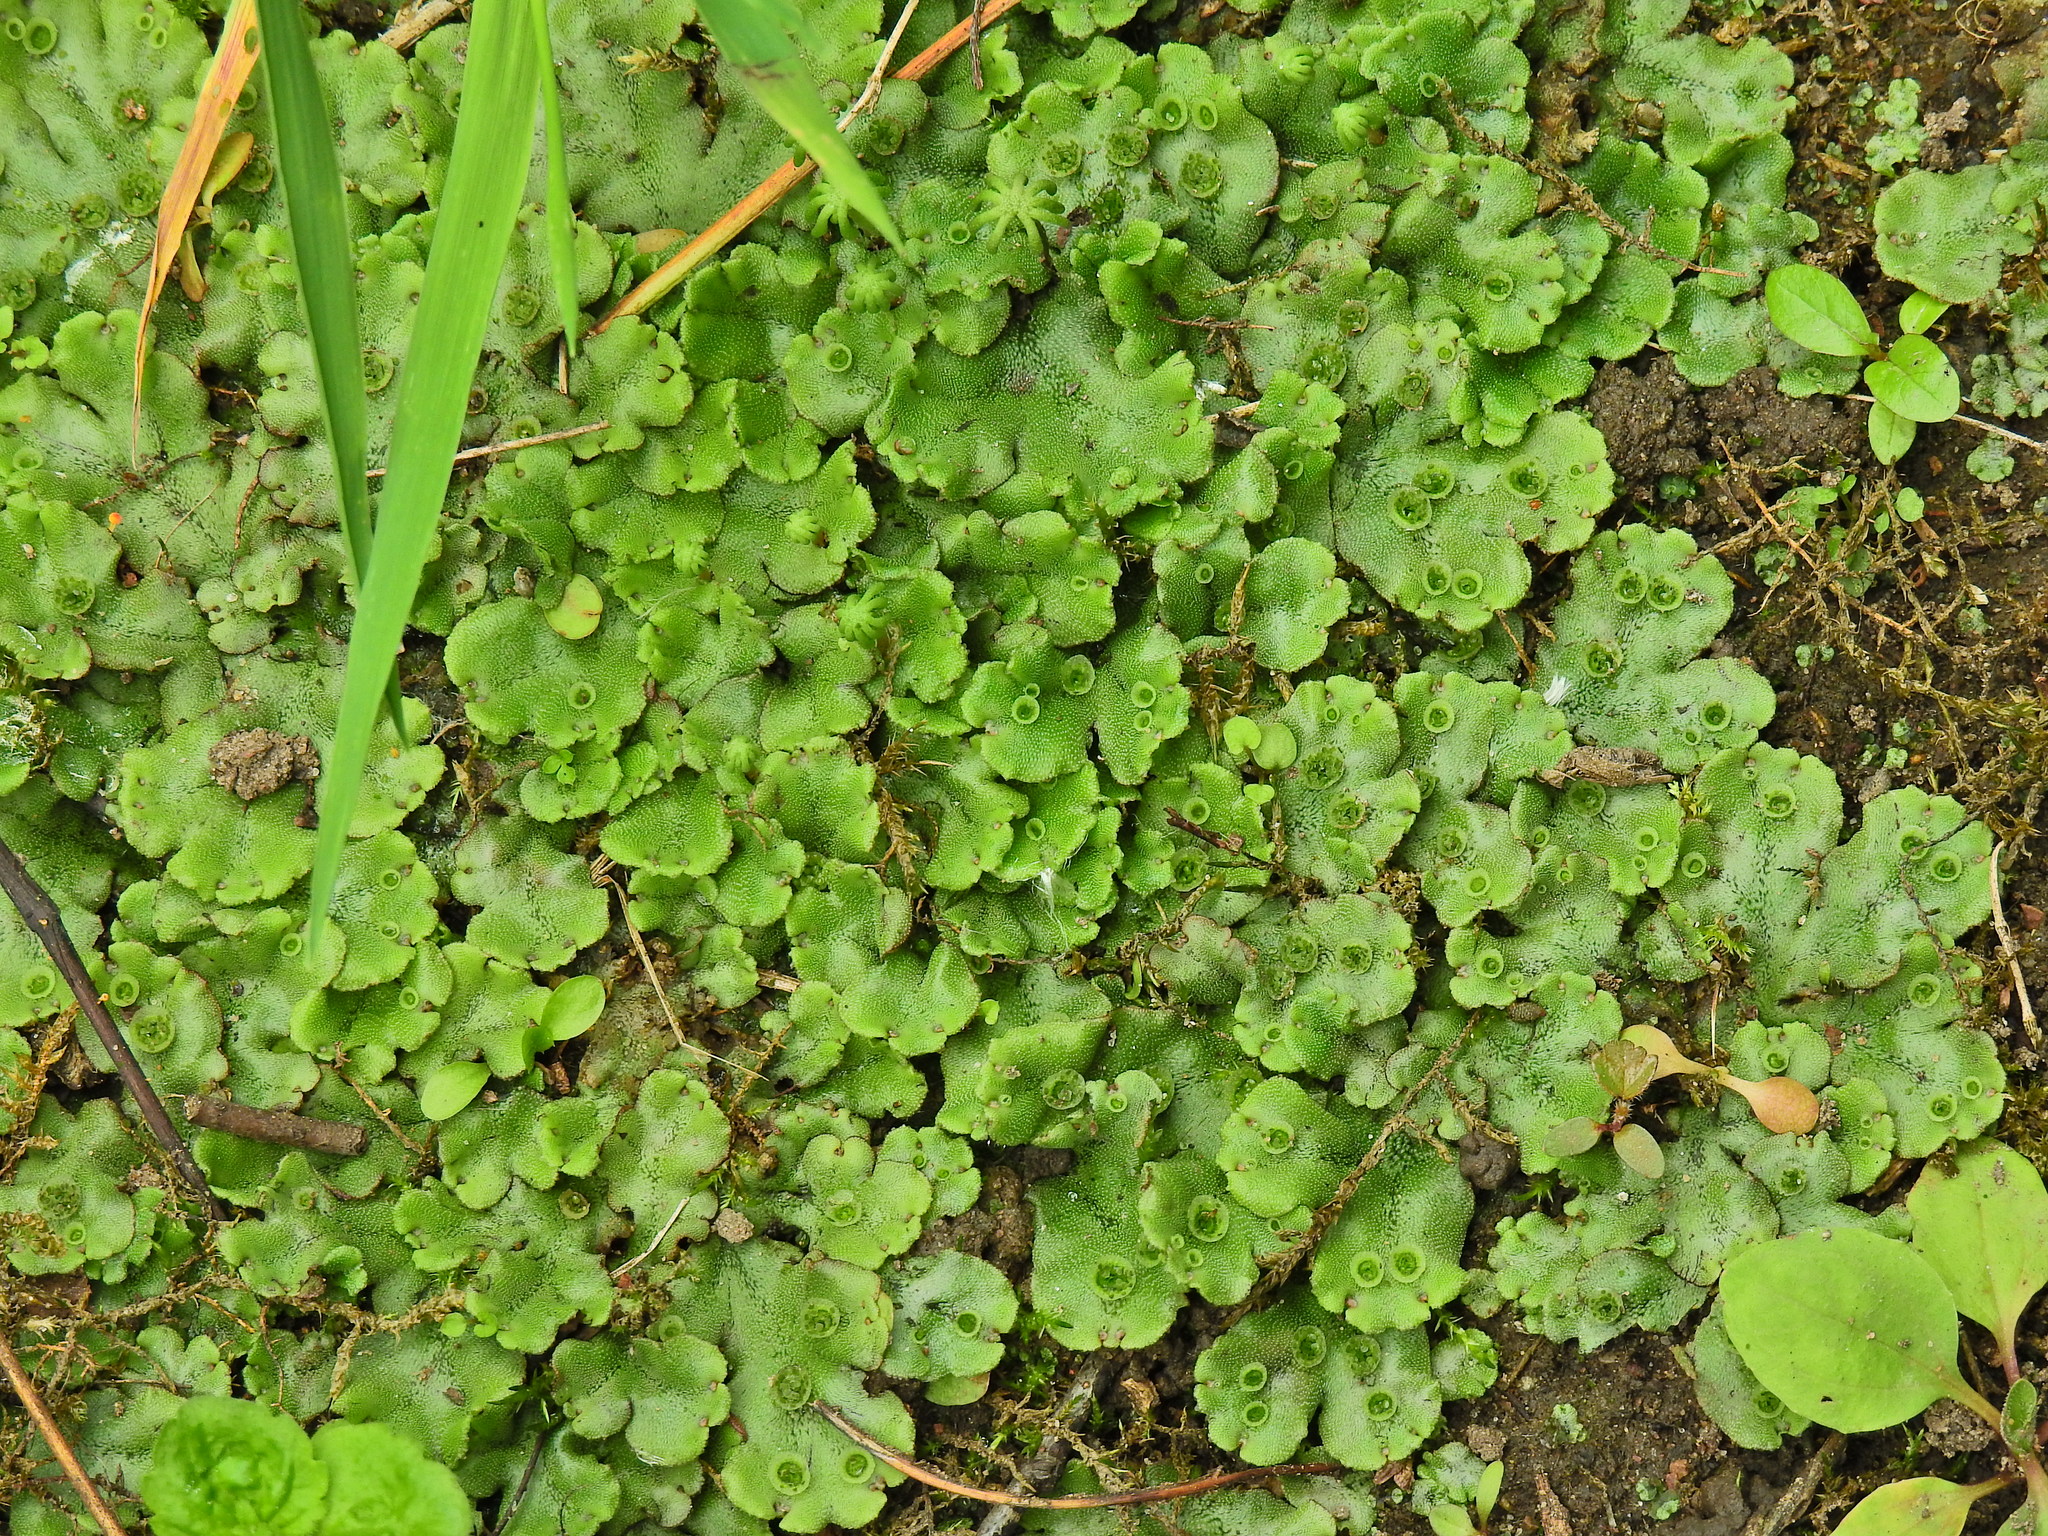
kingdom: Plantae
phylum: Marchantiophyta
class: Marchantiopsida
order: Marchantiales
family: Marchantiaceae
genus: Marchantia
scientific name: Marchantia polymorpha
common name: Common liverwort
